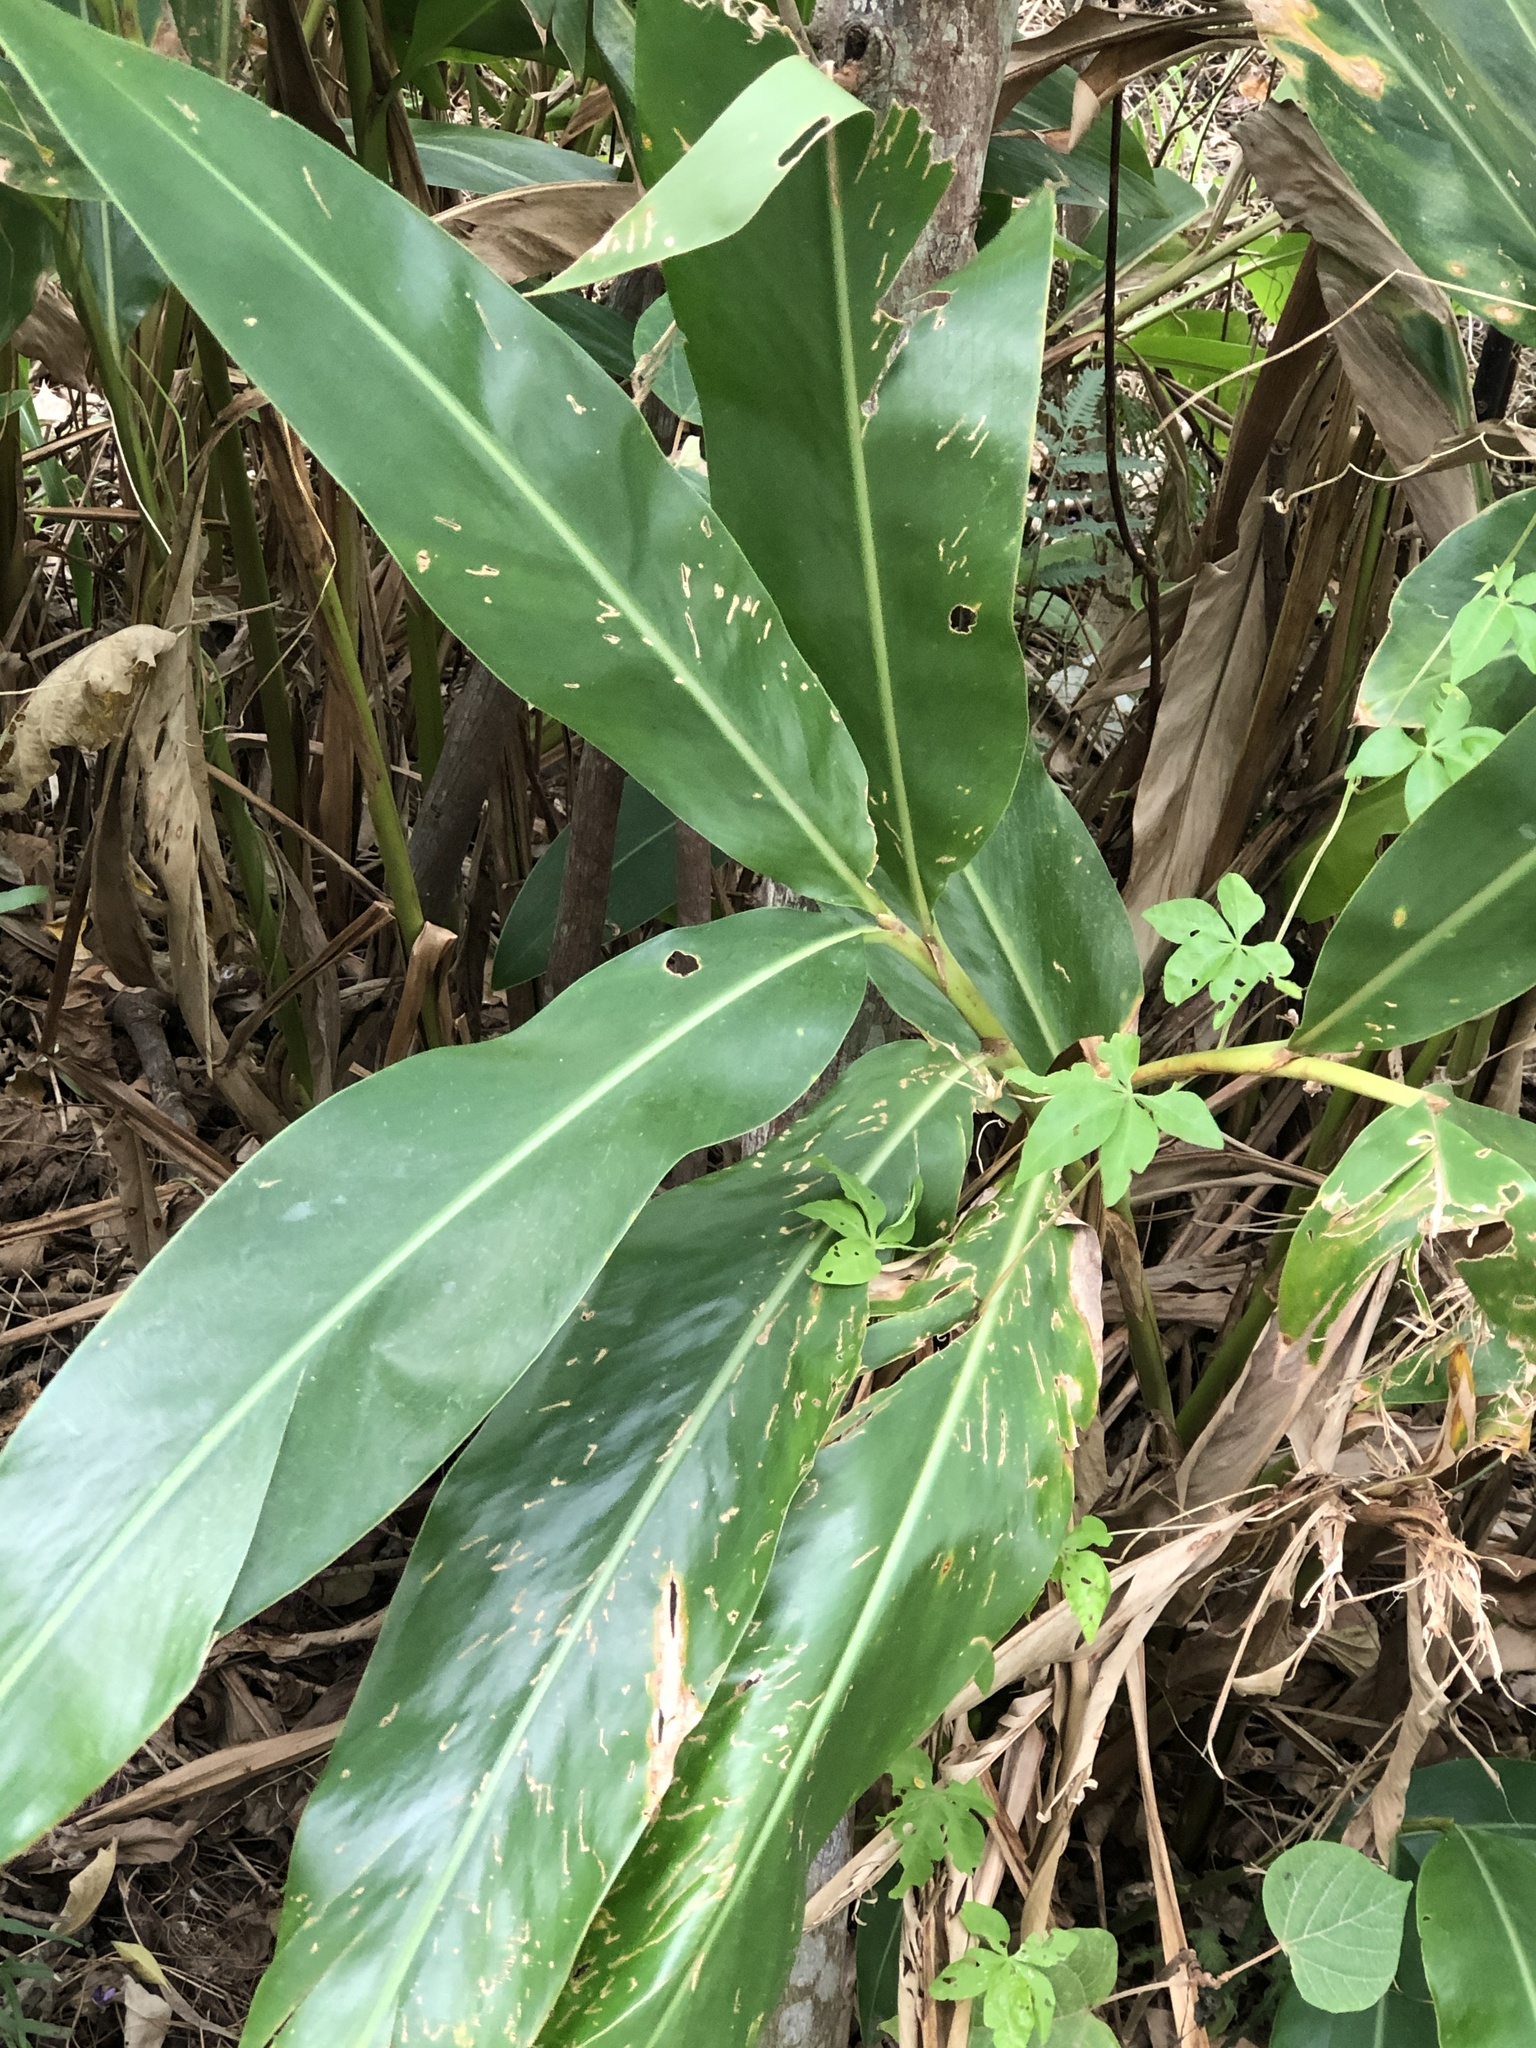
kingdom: Plantae
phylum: Tracheophyta
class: Liliopsida
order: Zingiberales
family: Zingiberaceae
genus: Alpinia
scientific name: Alpinia zerumbet
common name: Shellplant
